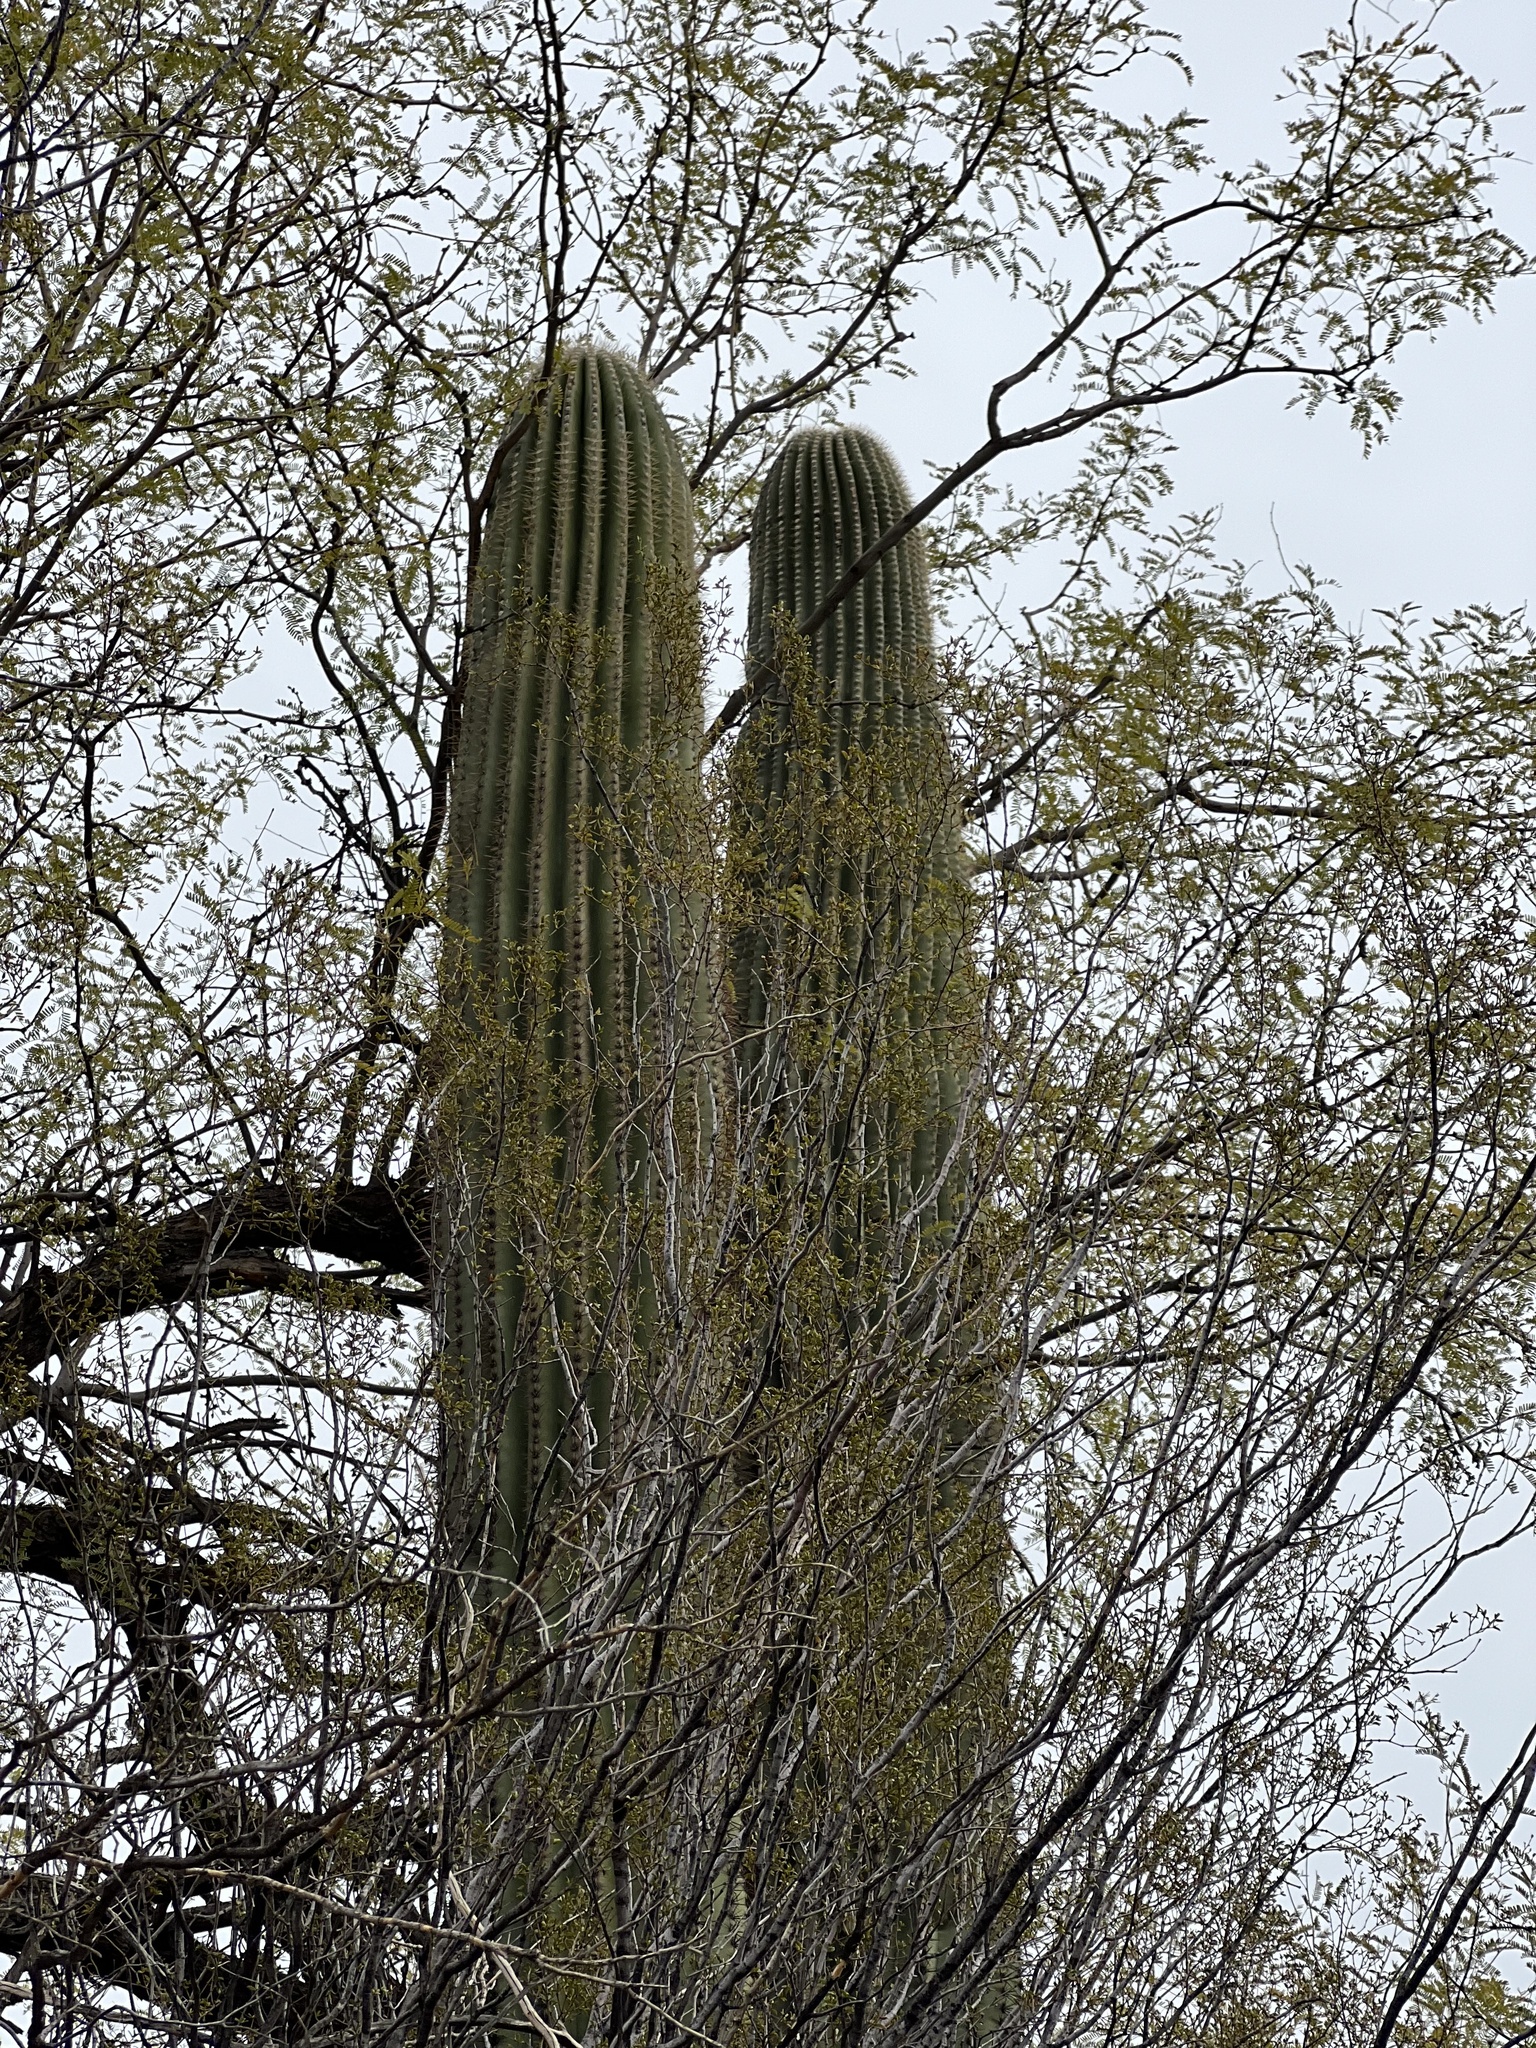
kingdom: Plantae
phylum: Tracheophyta
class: Magnoliopsida
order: Caryophyllales
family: Cactaceae
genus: Carnegiea
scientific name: Carnegiea gigantea
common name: Saguaro
